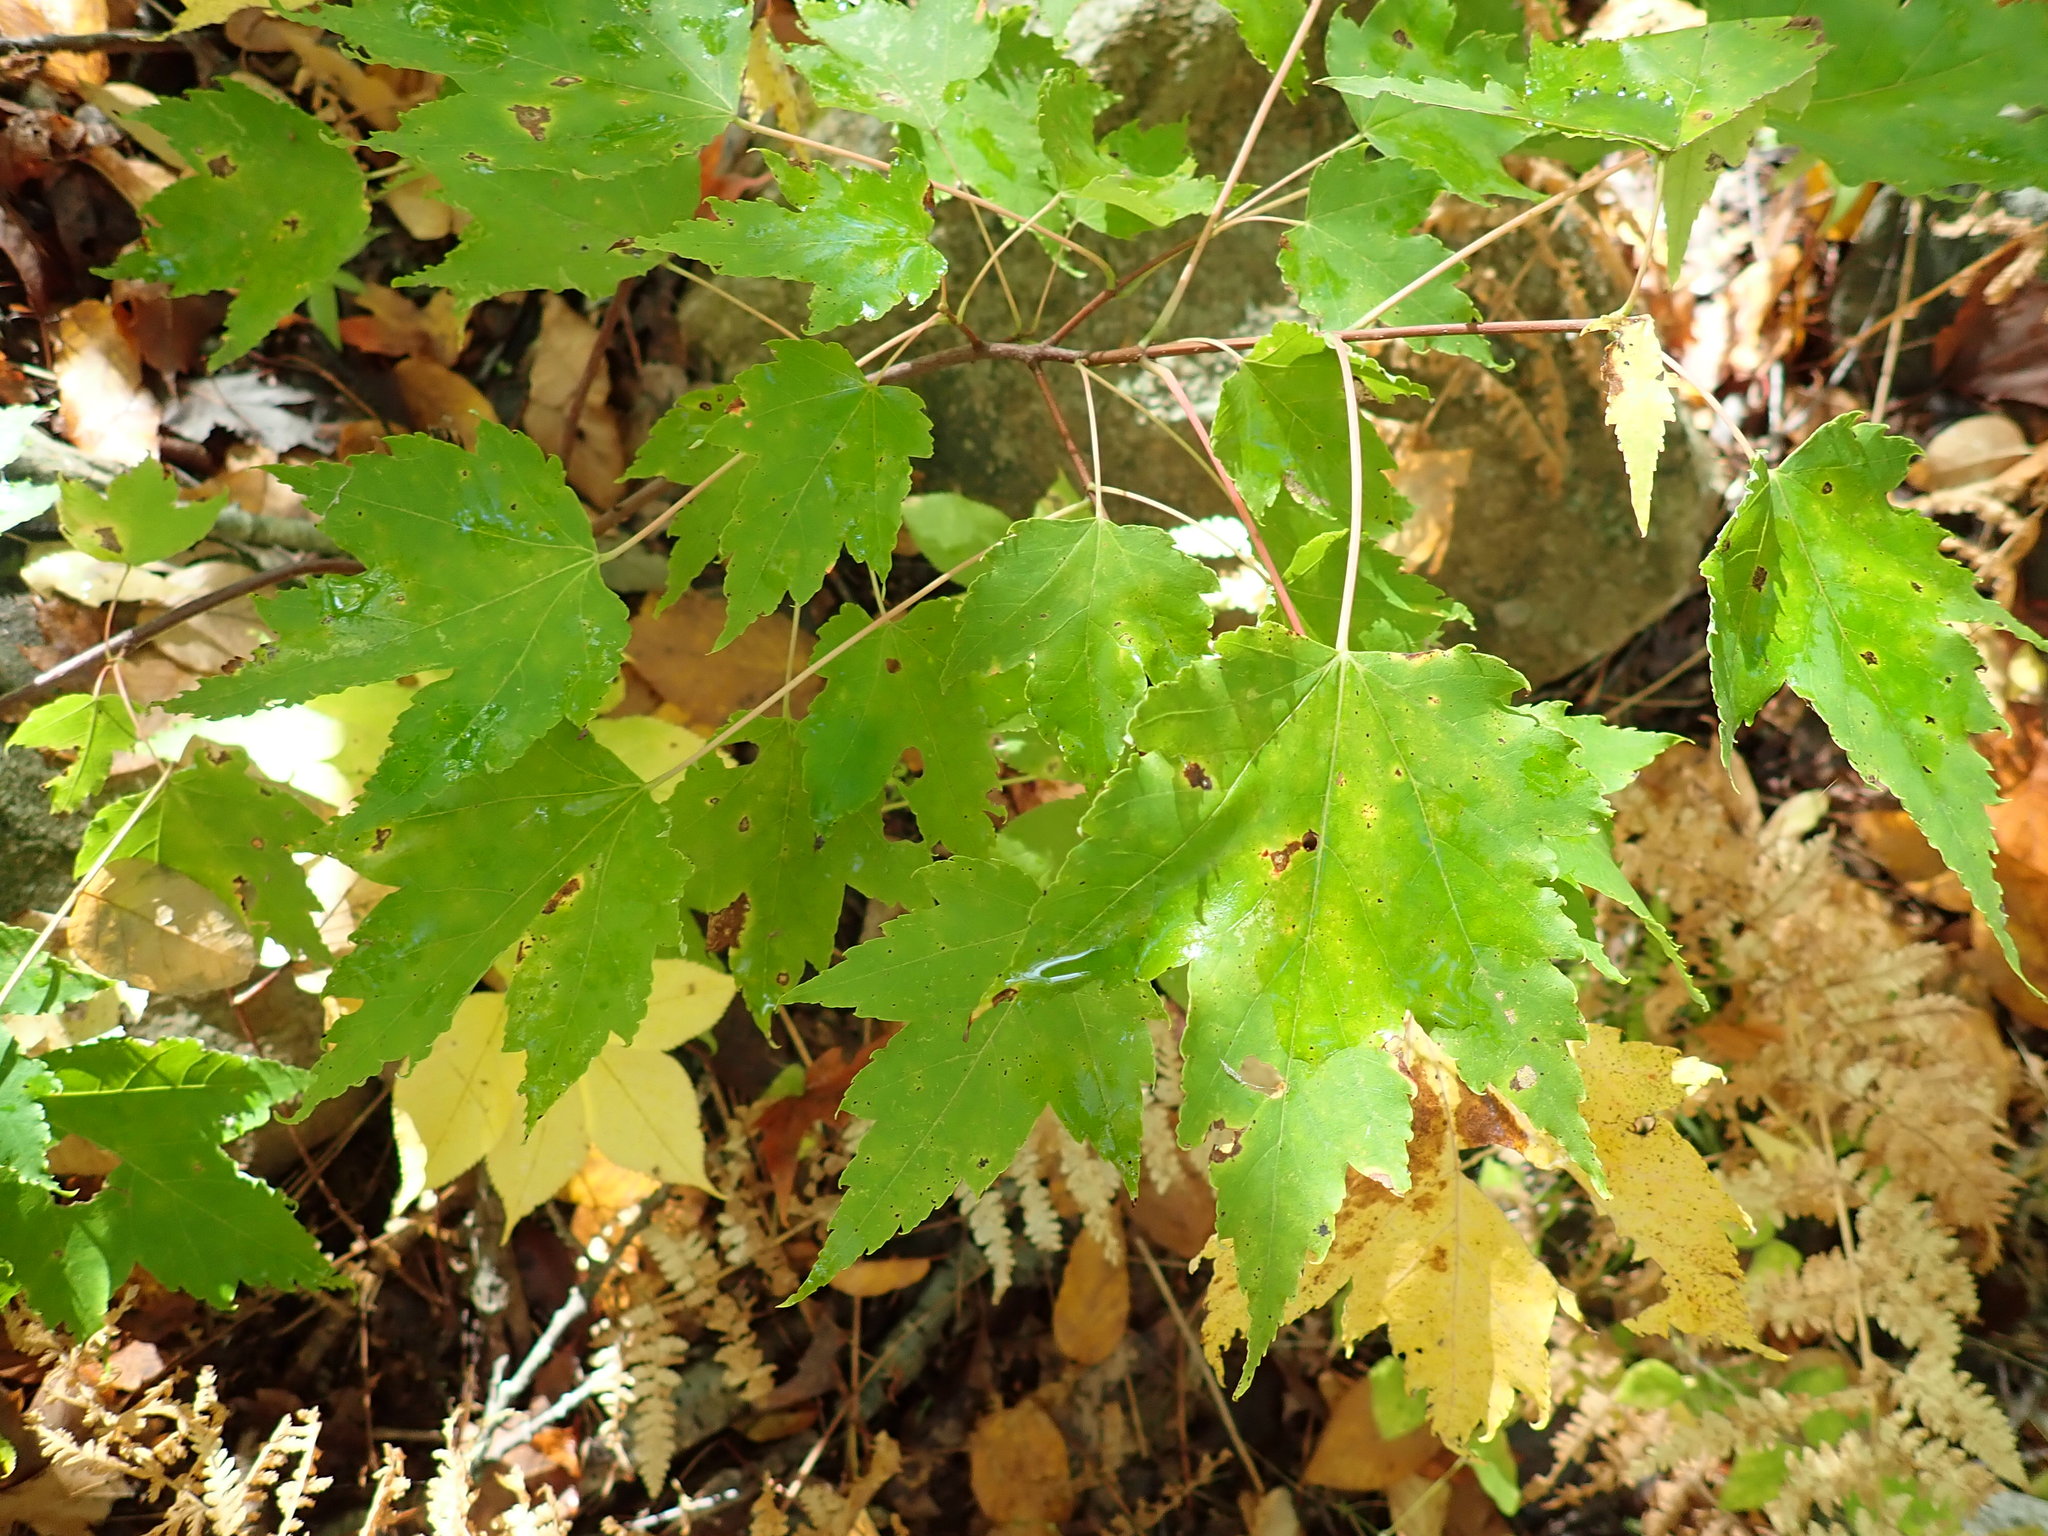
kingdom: Plantae
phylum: Tracheophyta
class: Magnoliopsida
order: Sapindales
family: Sapindaceae
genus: Acer
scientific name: Acer rubrum
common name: Red maple
